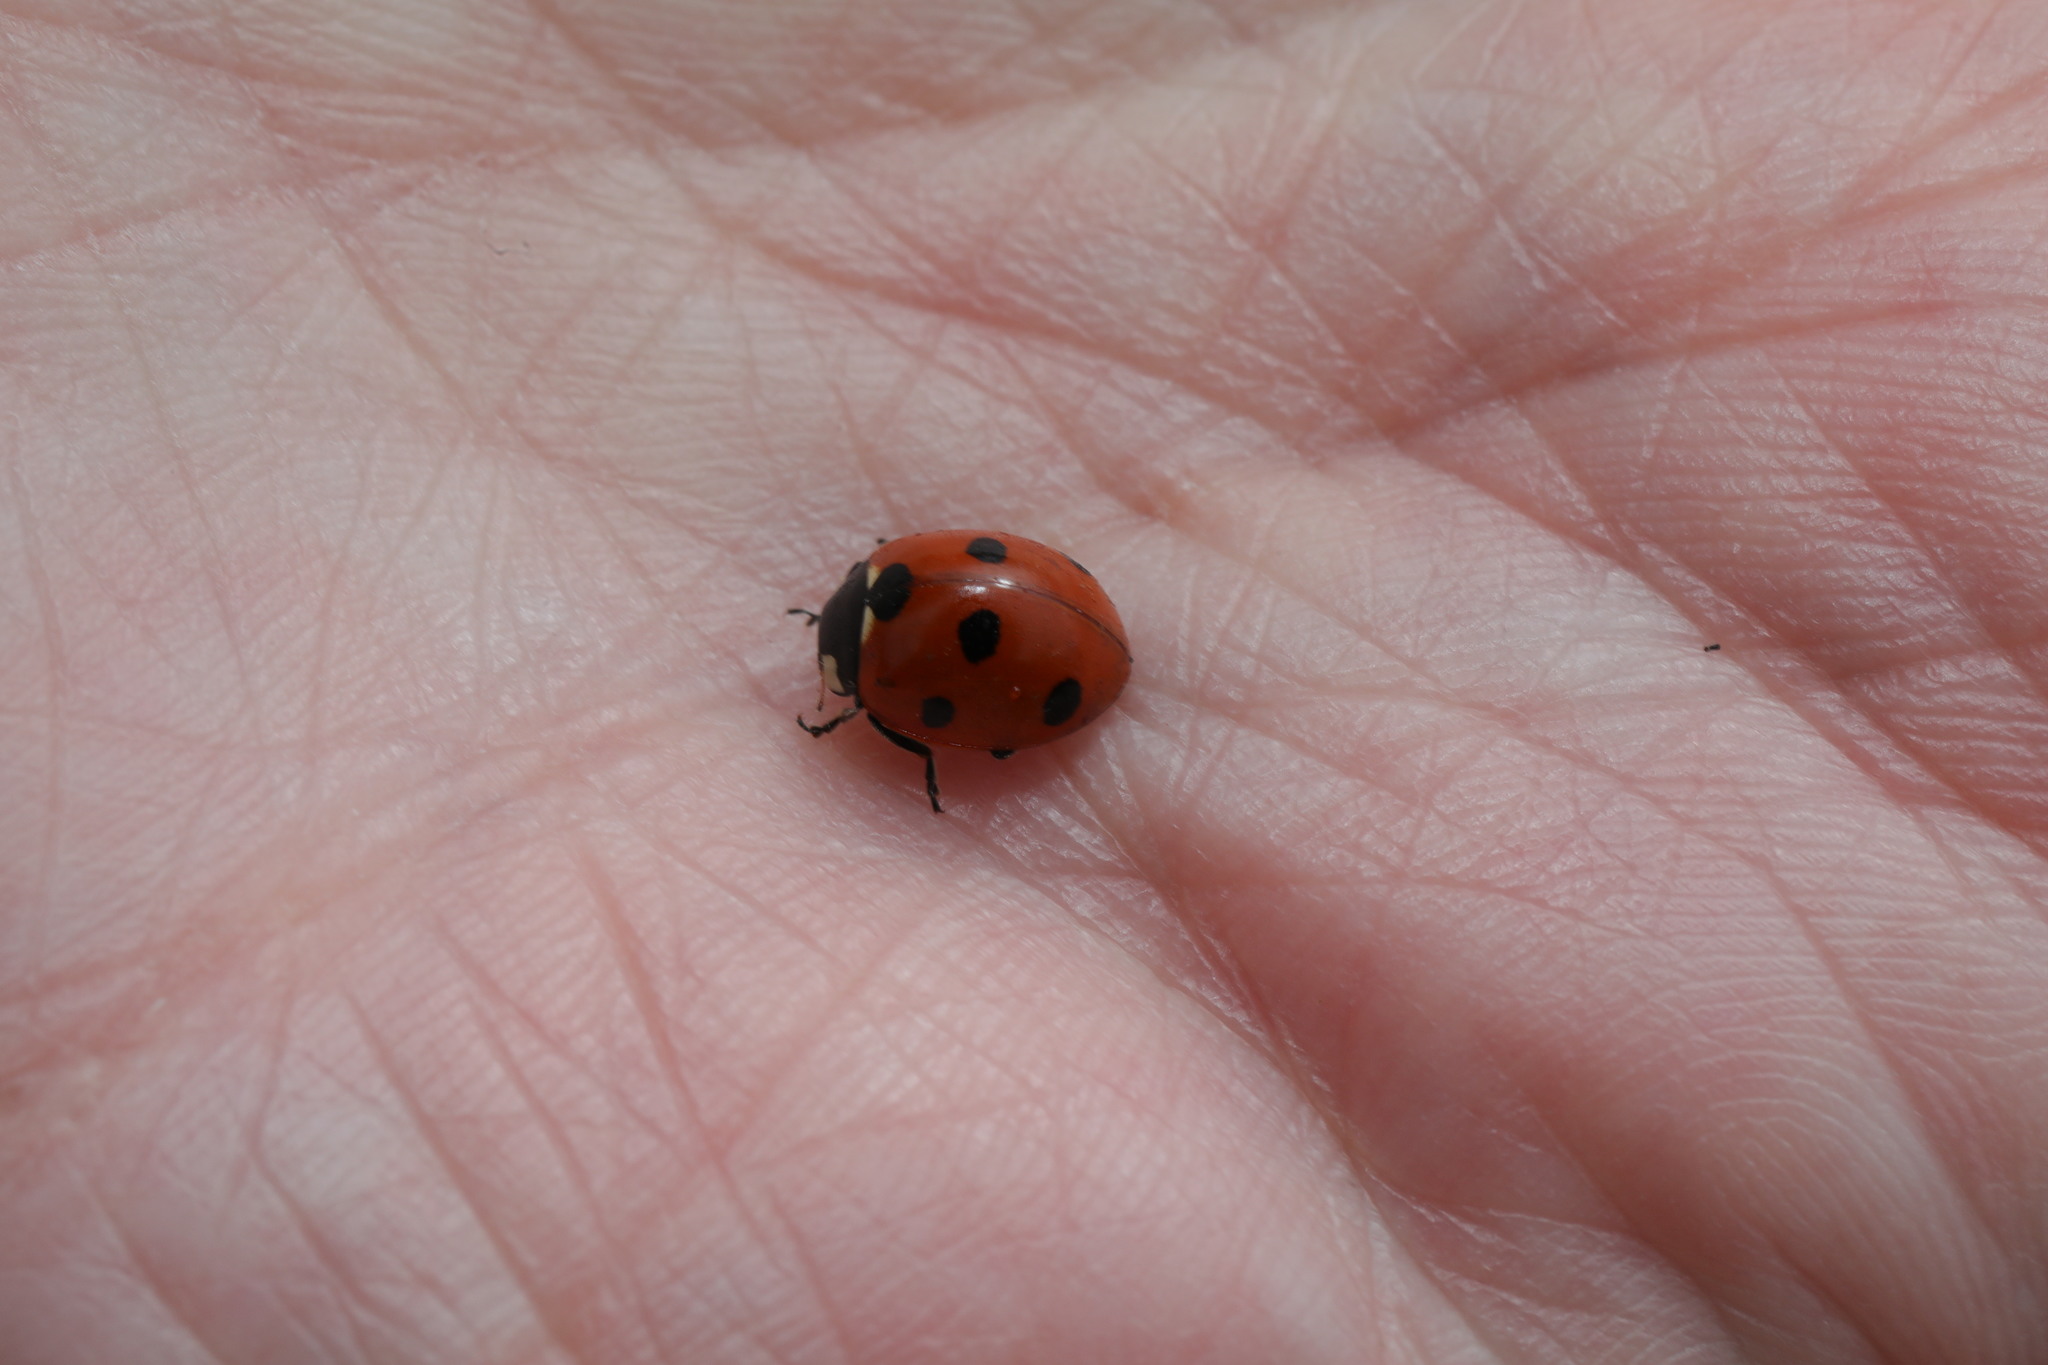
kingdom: Animalia
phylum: Arthropoda
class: Insecta
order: Coleoptera
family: Coccinellidae
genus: Coccinella
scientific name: Coccinella septempunctata
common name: Sevenspotted lady beetle
